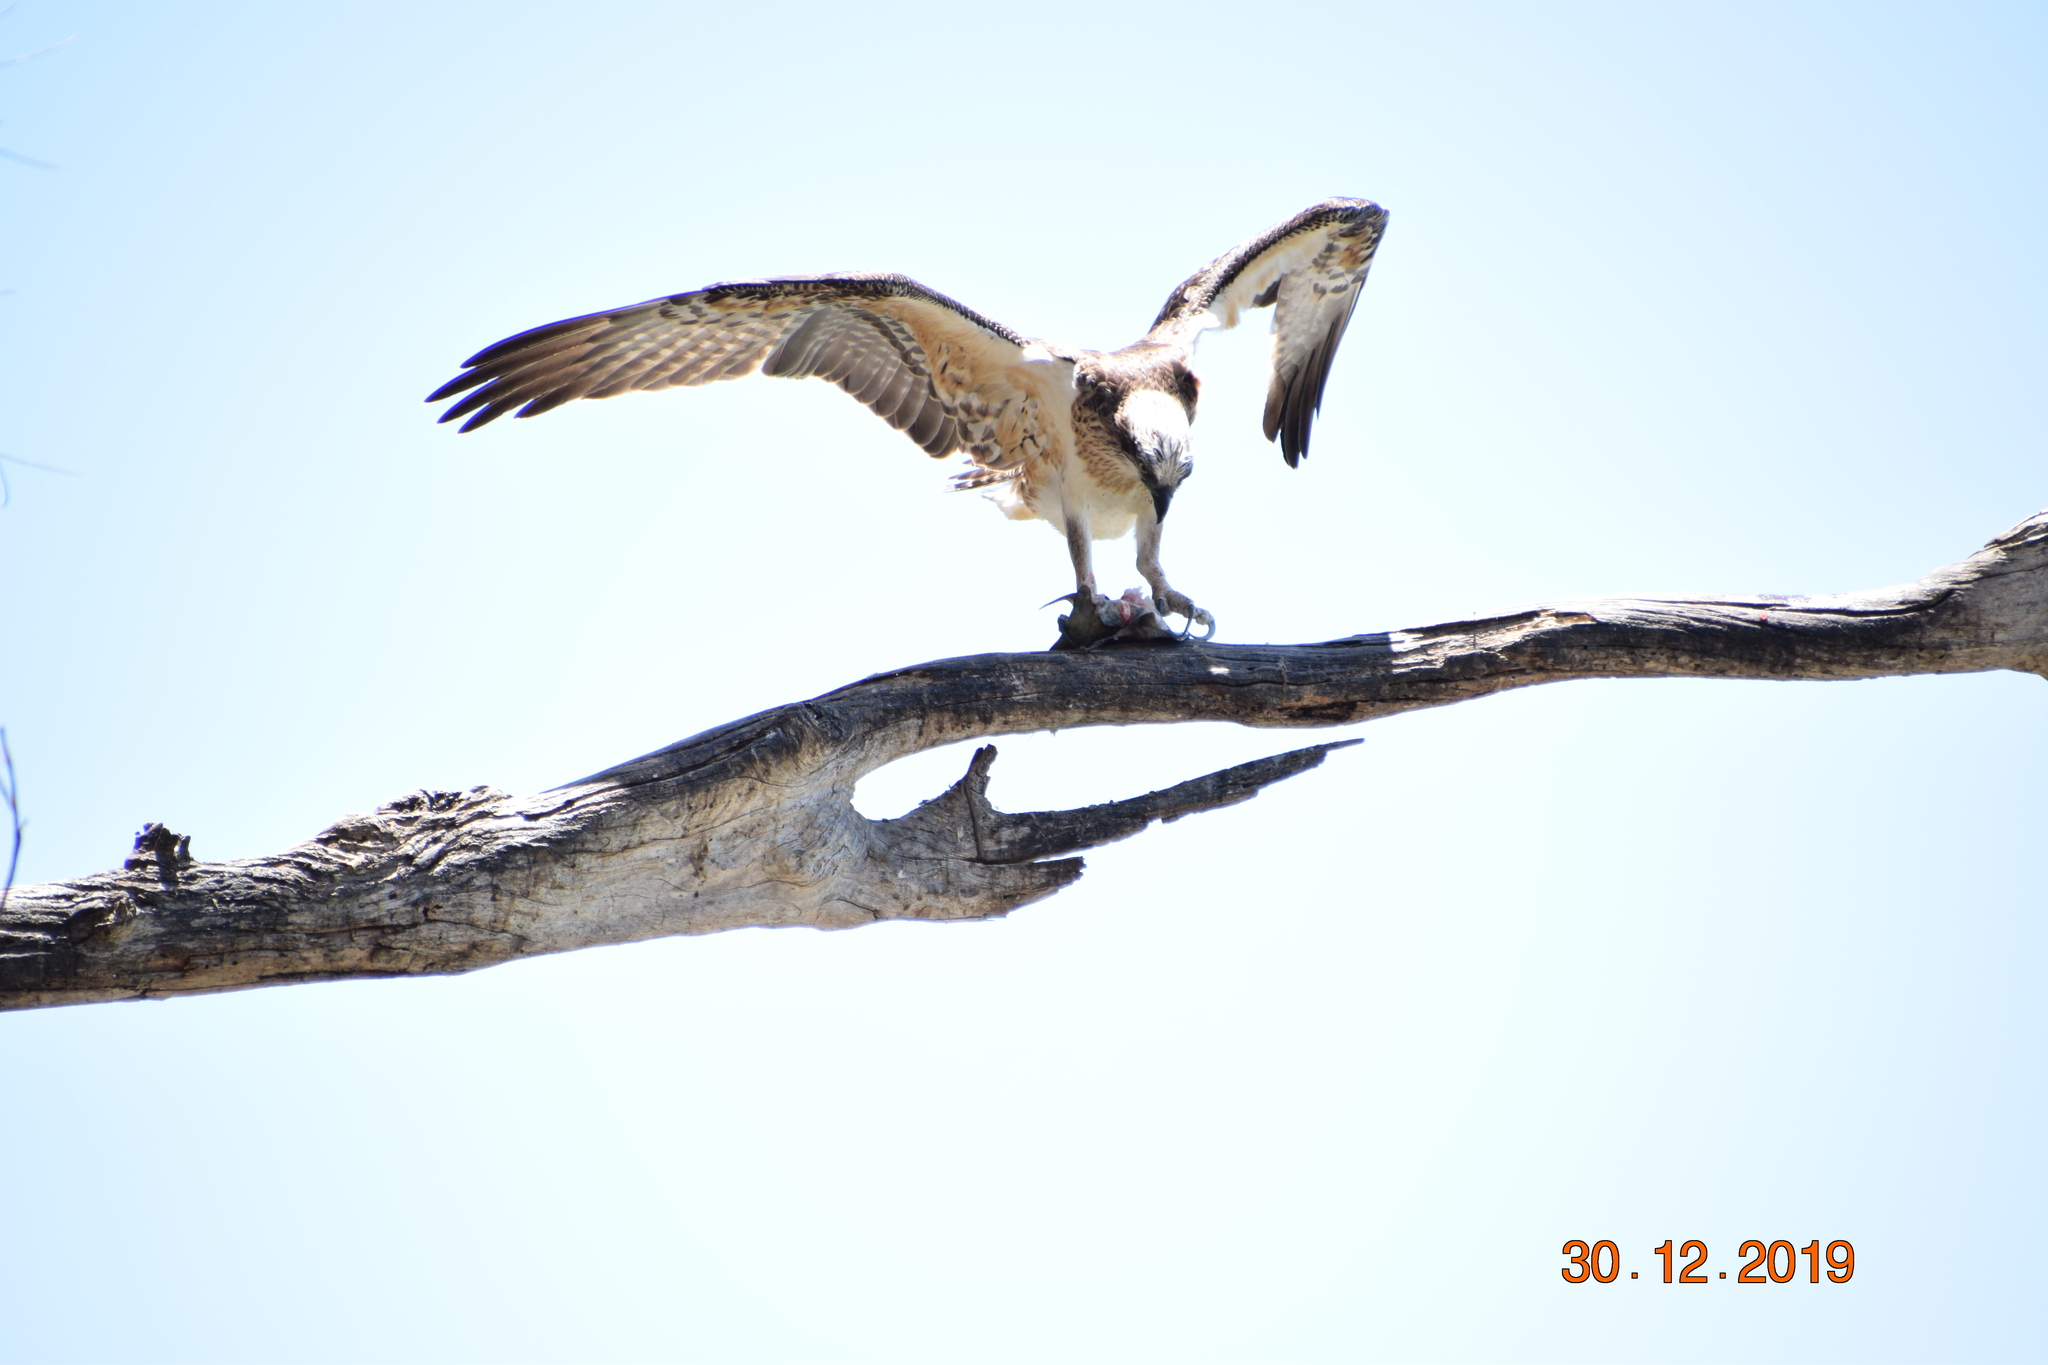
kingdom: Animalia
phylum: Chordata
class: Aves
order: Accipitriformes
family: Pandionidae
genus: Pandion
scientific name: Pandion cristatus
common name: Eastern osprey
